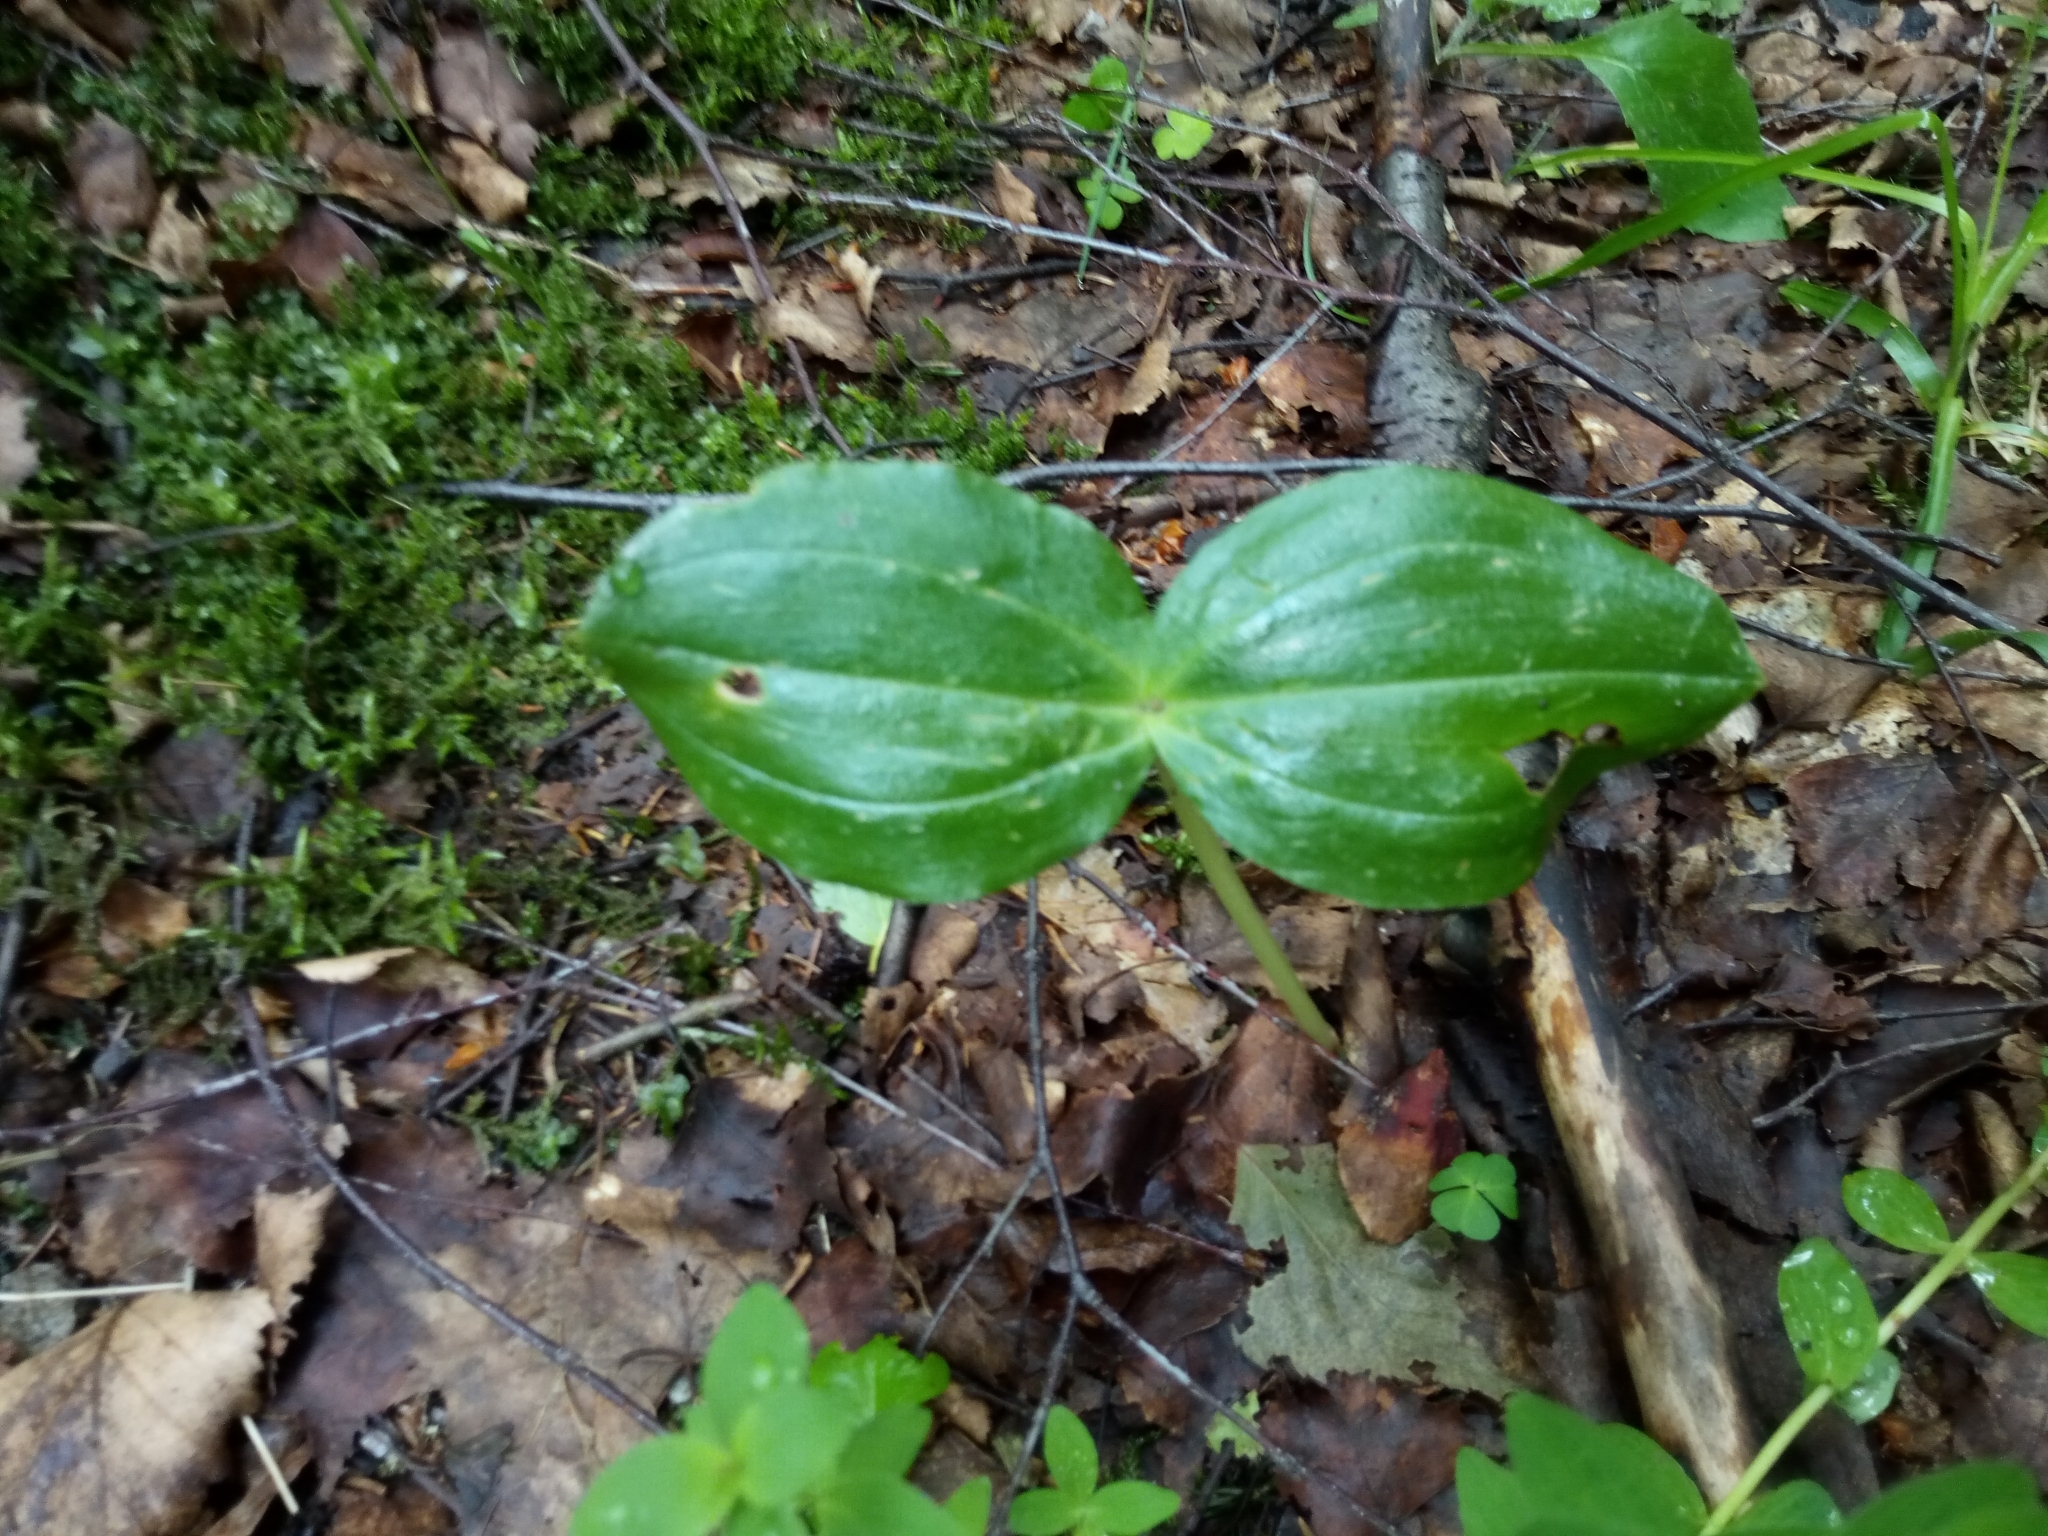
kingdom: Plantae
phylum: Tracheophyta
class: Liliopsida
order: Asparagales
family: Orchidaceae
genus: Neottia
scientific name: Neottia ovata
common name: Common twayblade
